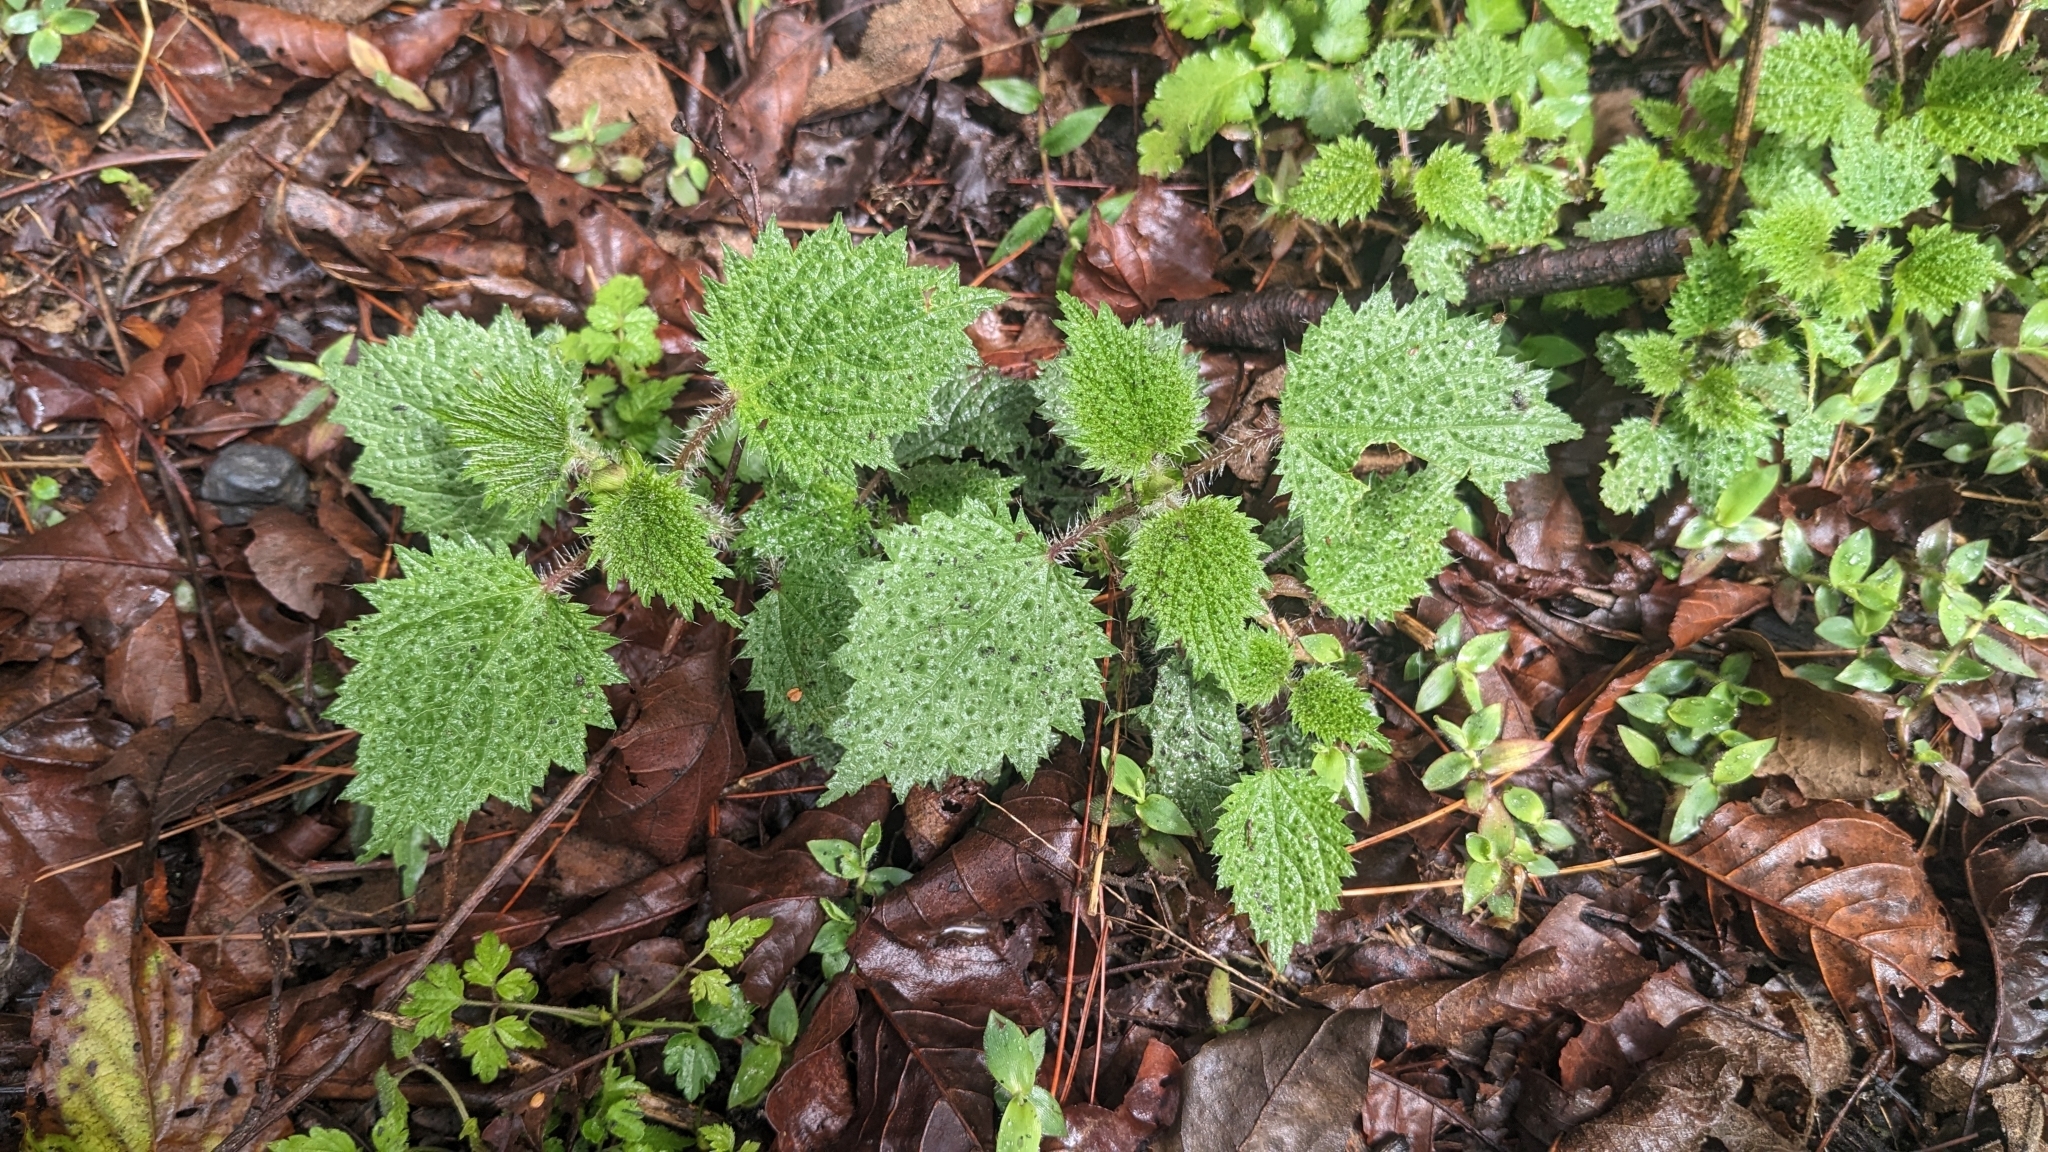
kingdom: Plantae
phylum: Tracheophyta
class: Magnoliopsida
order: Rosales
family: Urticaceae
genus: Urtica
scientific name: Urtica thunbergiana
